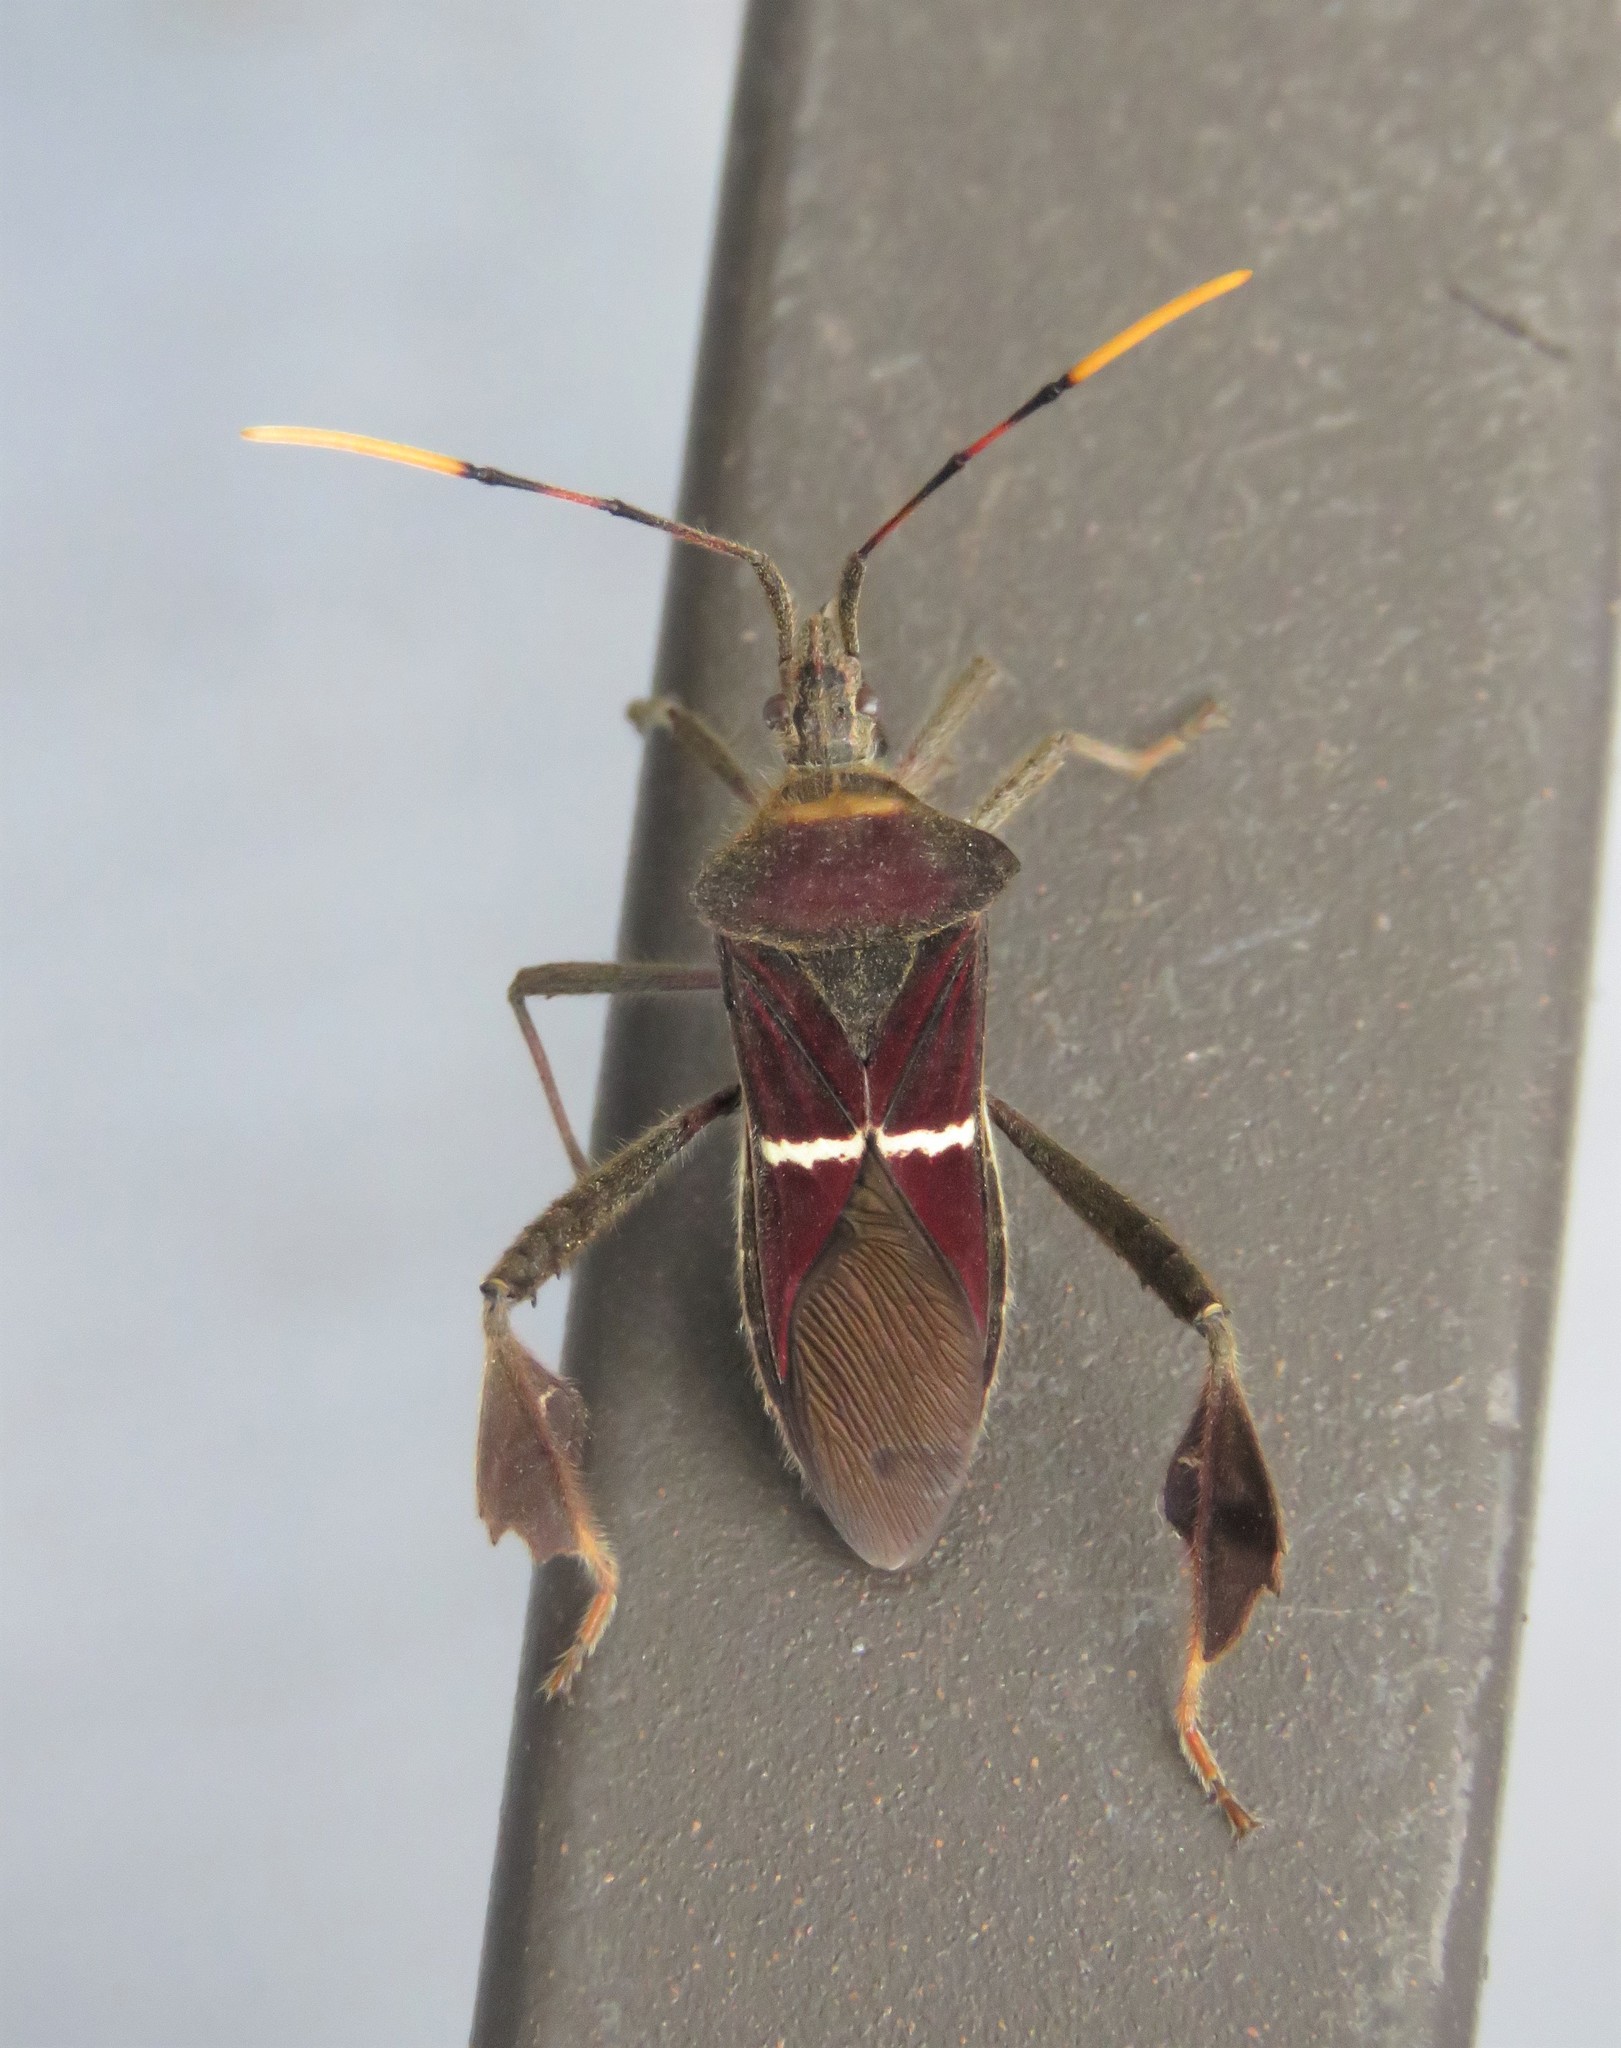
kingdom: Animalia
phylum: Arthropoda
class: Insecta
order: Hemiptera
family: Coreidae
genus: Leptoglossus
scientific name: Leptoglossus macrophyllus
